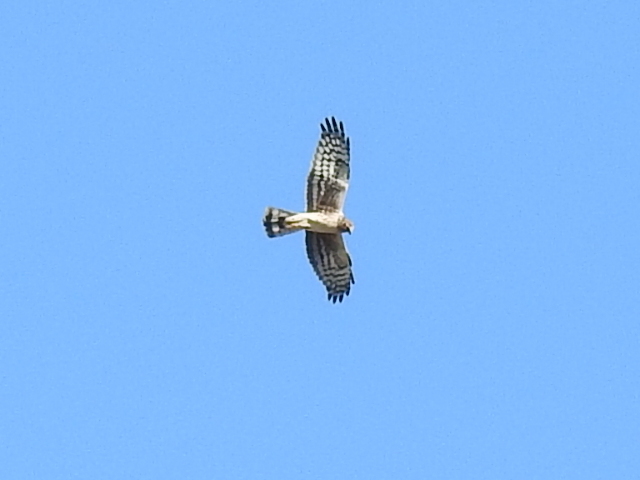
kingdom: Animalia
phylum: Chordata
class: Aves
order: Accipitriformes
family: Accipitridae
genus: Circus
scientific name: Circus cyaneus
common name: Hen harrier
